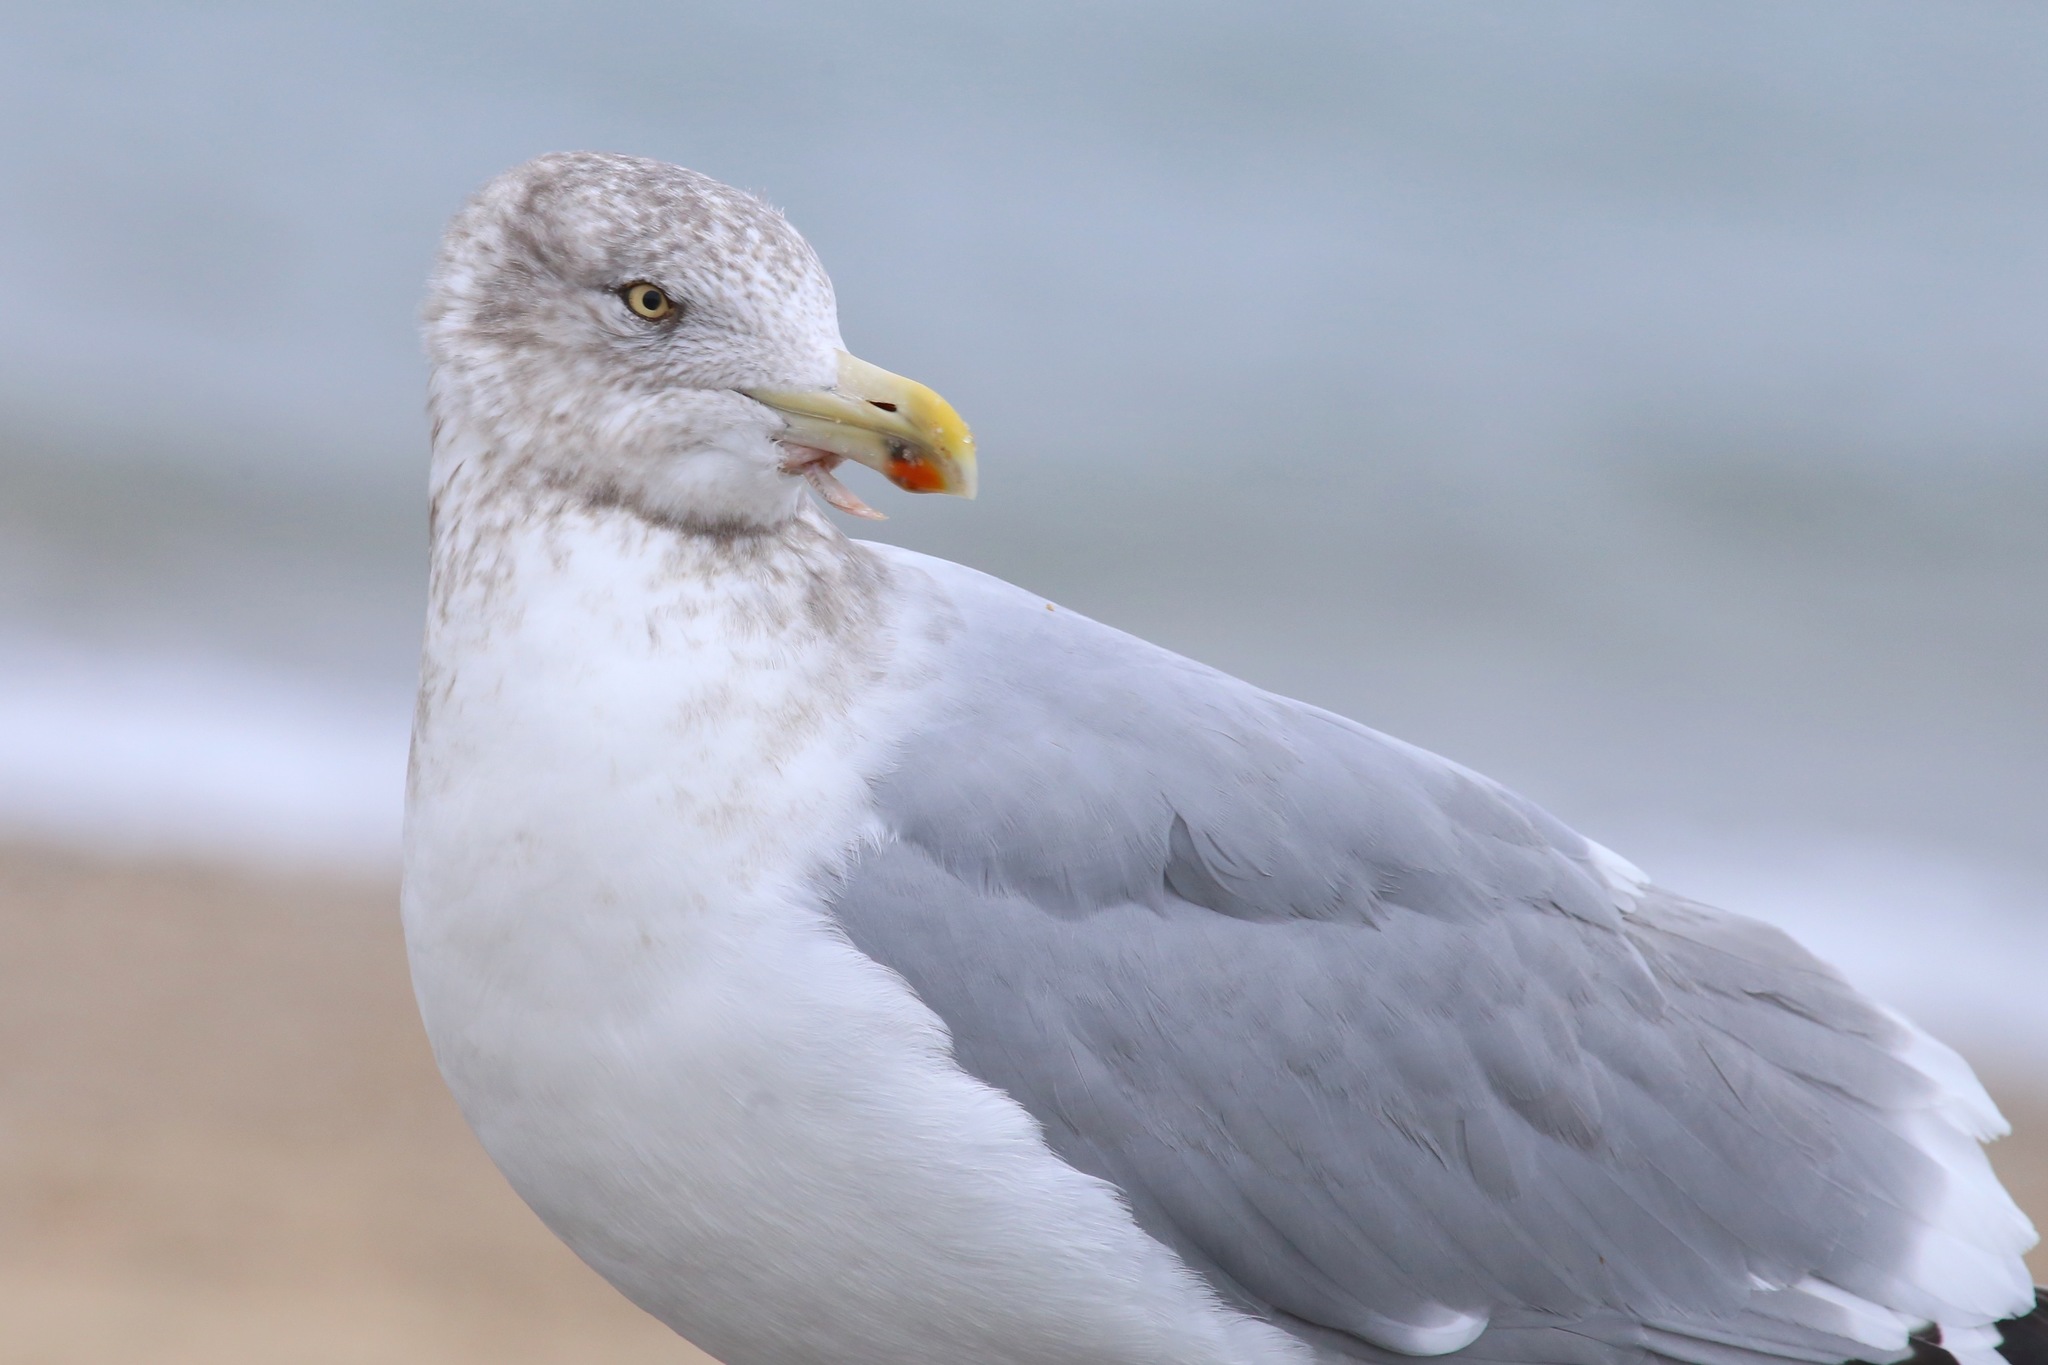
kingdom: Animalia
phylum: Chordata
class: Aves
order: Charadriiformes
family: Laridae
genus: Larus
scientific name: Larus argentatus
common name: Herring gull
